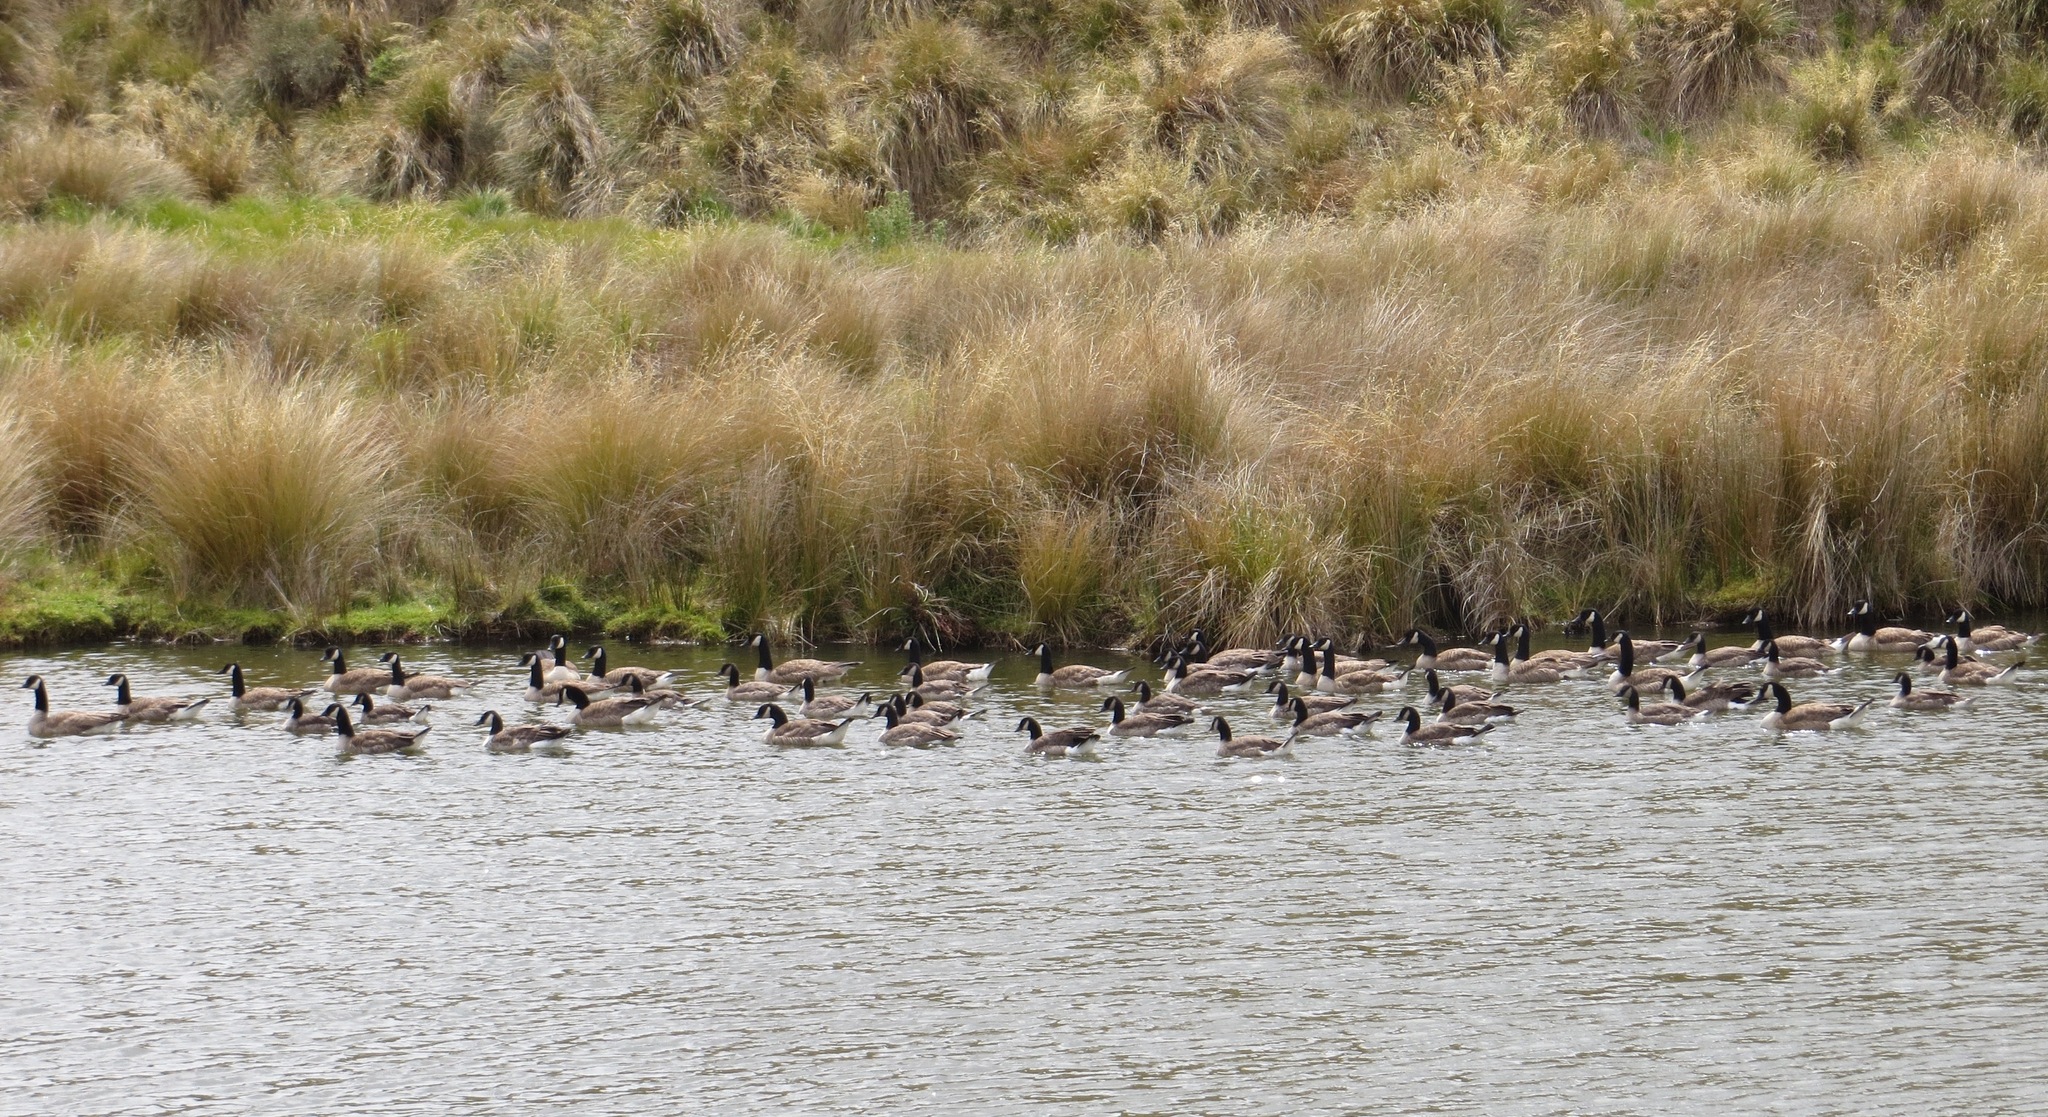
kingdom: Animalia
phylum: Chordata
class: Aves
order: Anseriformes
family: Anatidae
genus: Branta
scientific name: Branta canadensis
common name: Canada goose
